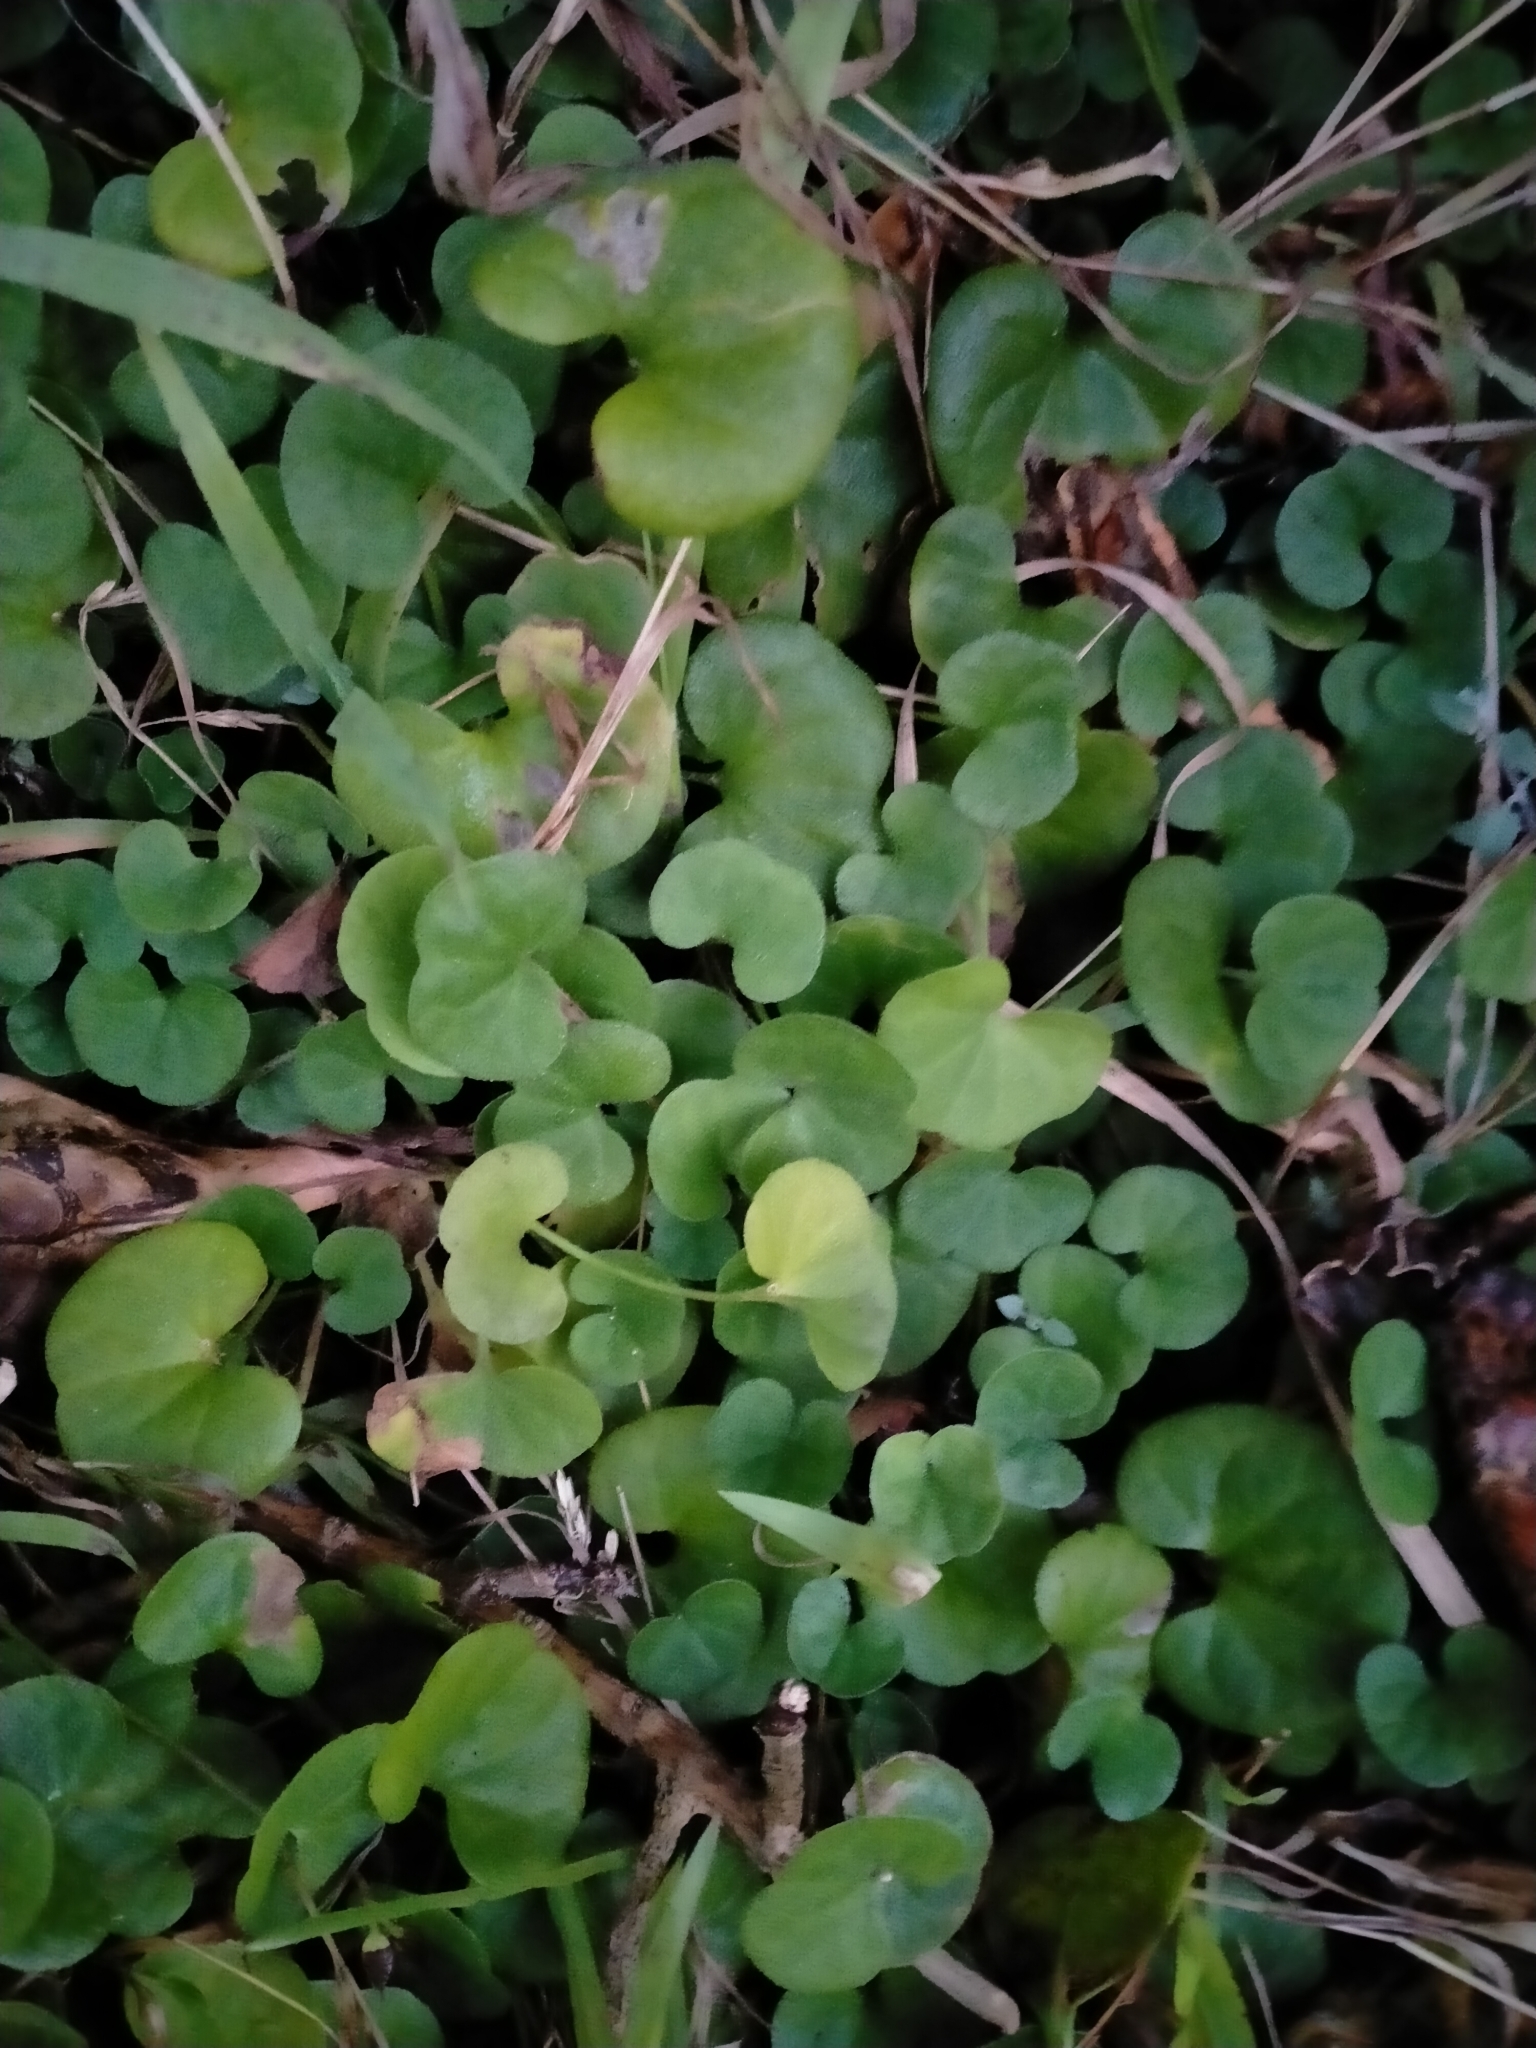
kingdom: Plantae
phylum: Tracheophyta
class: Magnoliopsida
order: Solanales
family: Convolvulaceae
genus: Dichondra
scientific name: Dichondra repens
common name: Kidneyweed
